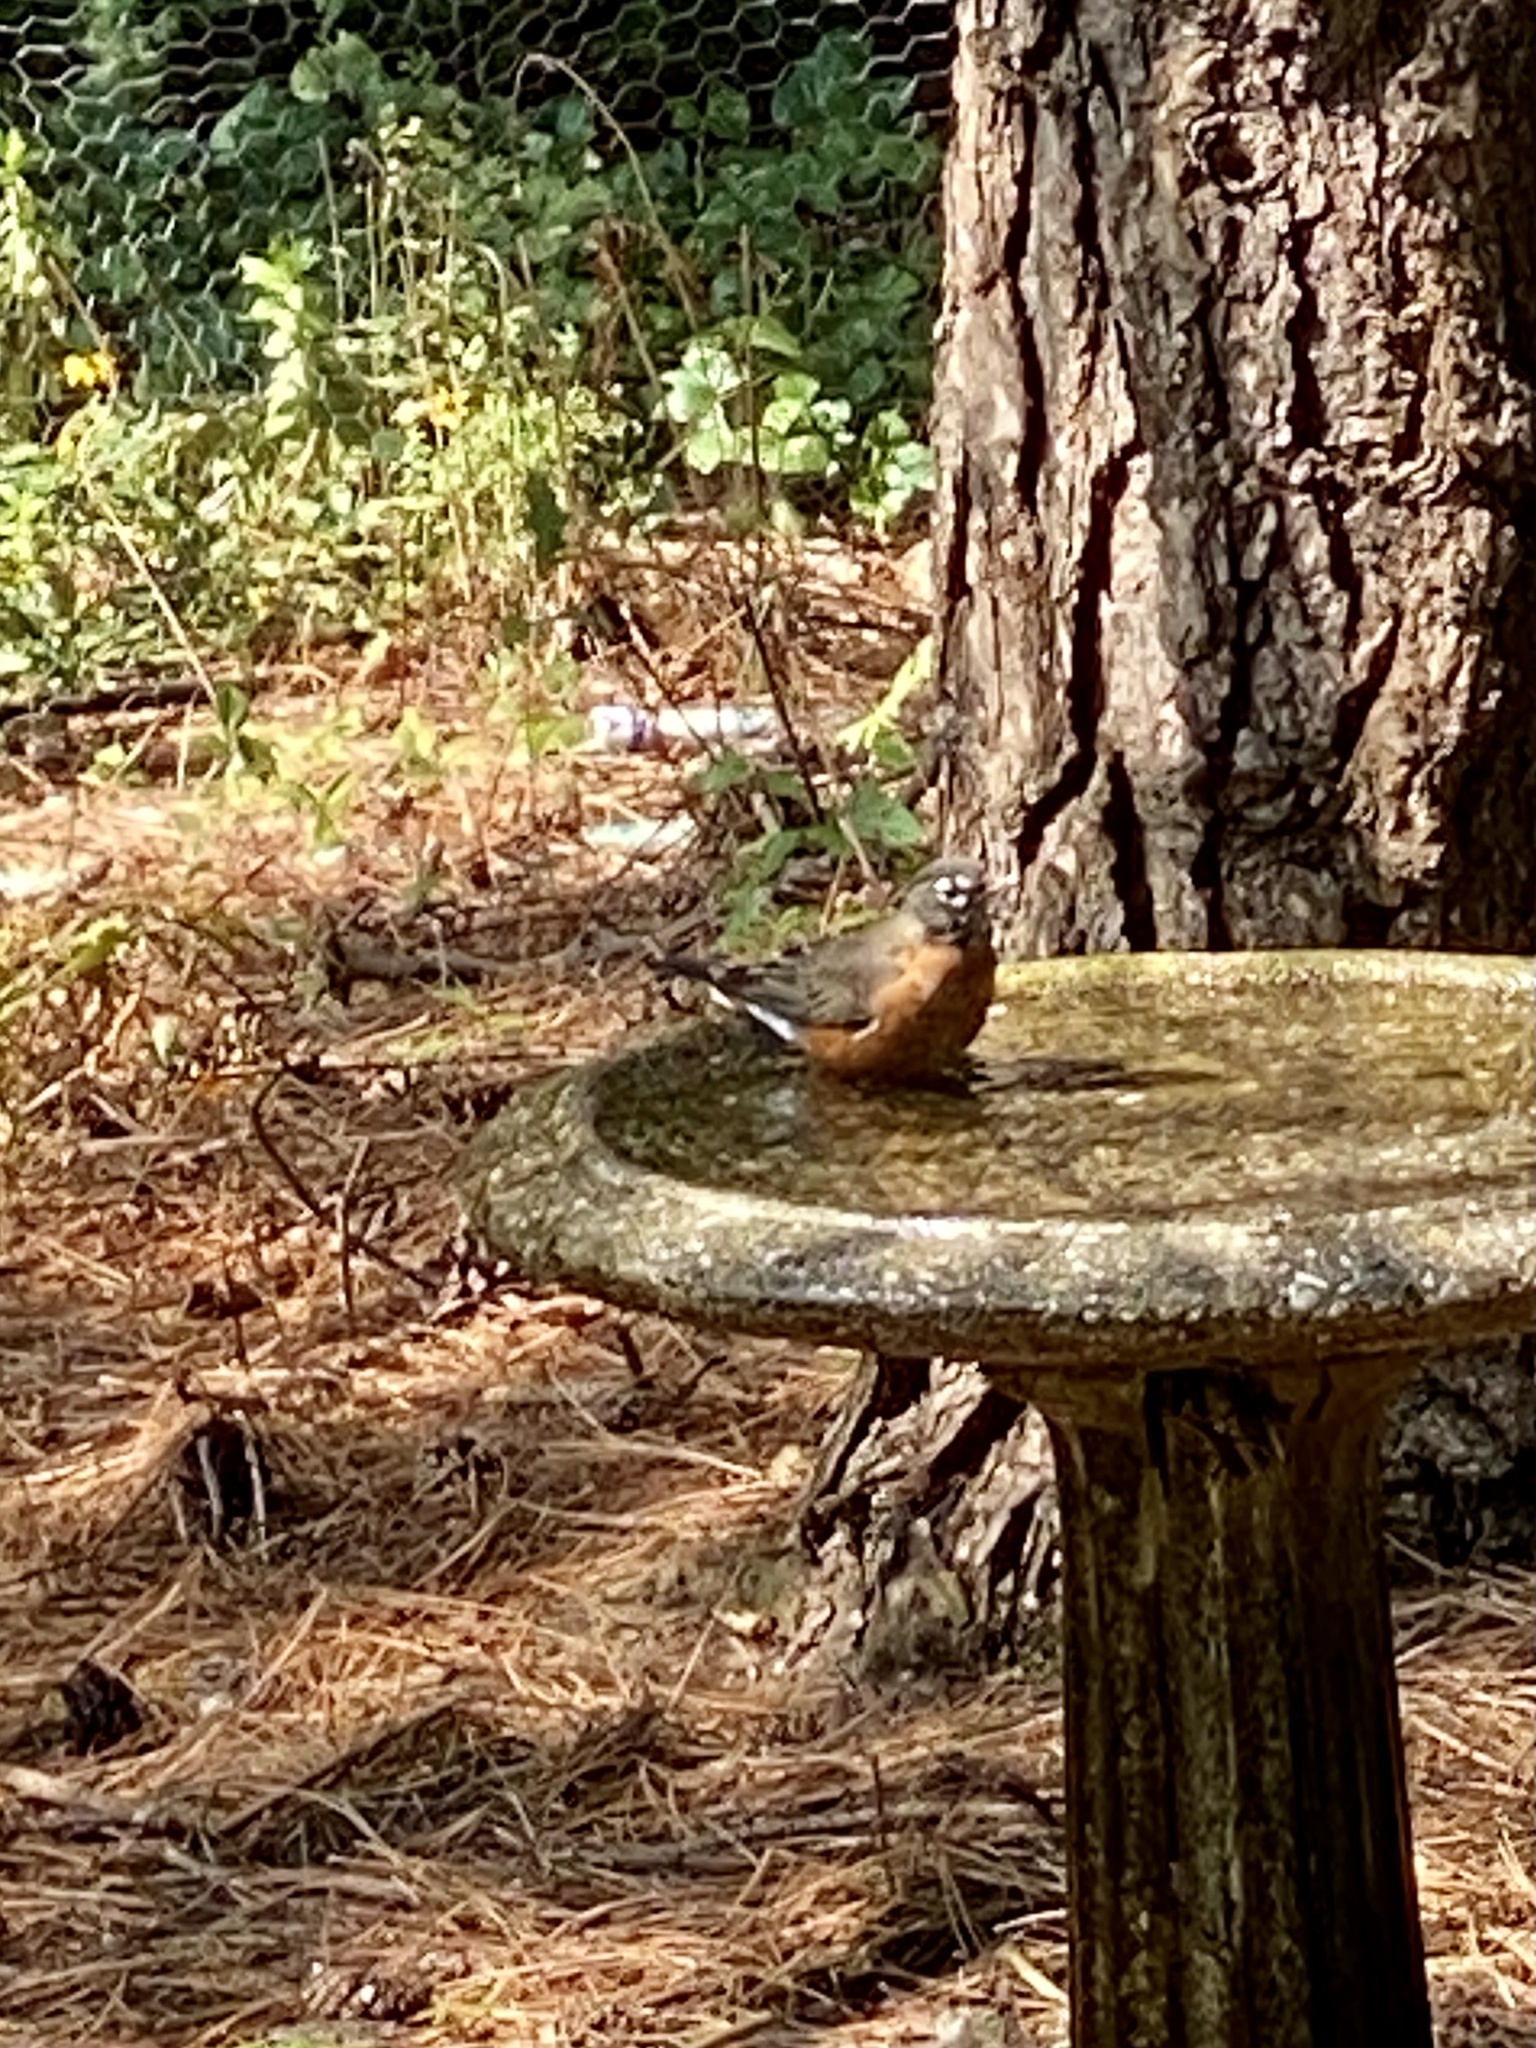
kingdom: Animalia
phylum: Chordata
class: Aves
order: Passeriformes
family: Turdidae
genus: Turdus
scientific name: Turdus migratorius
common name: American robin
